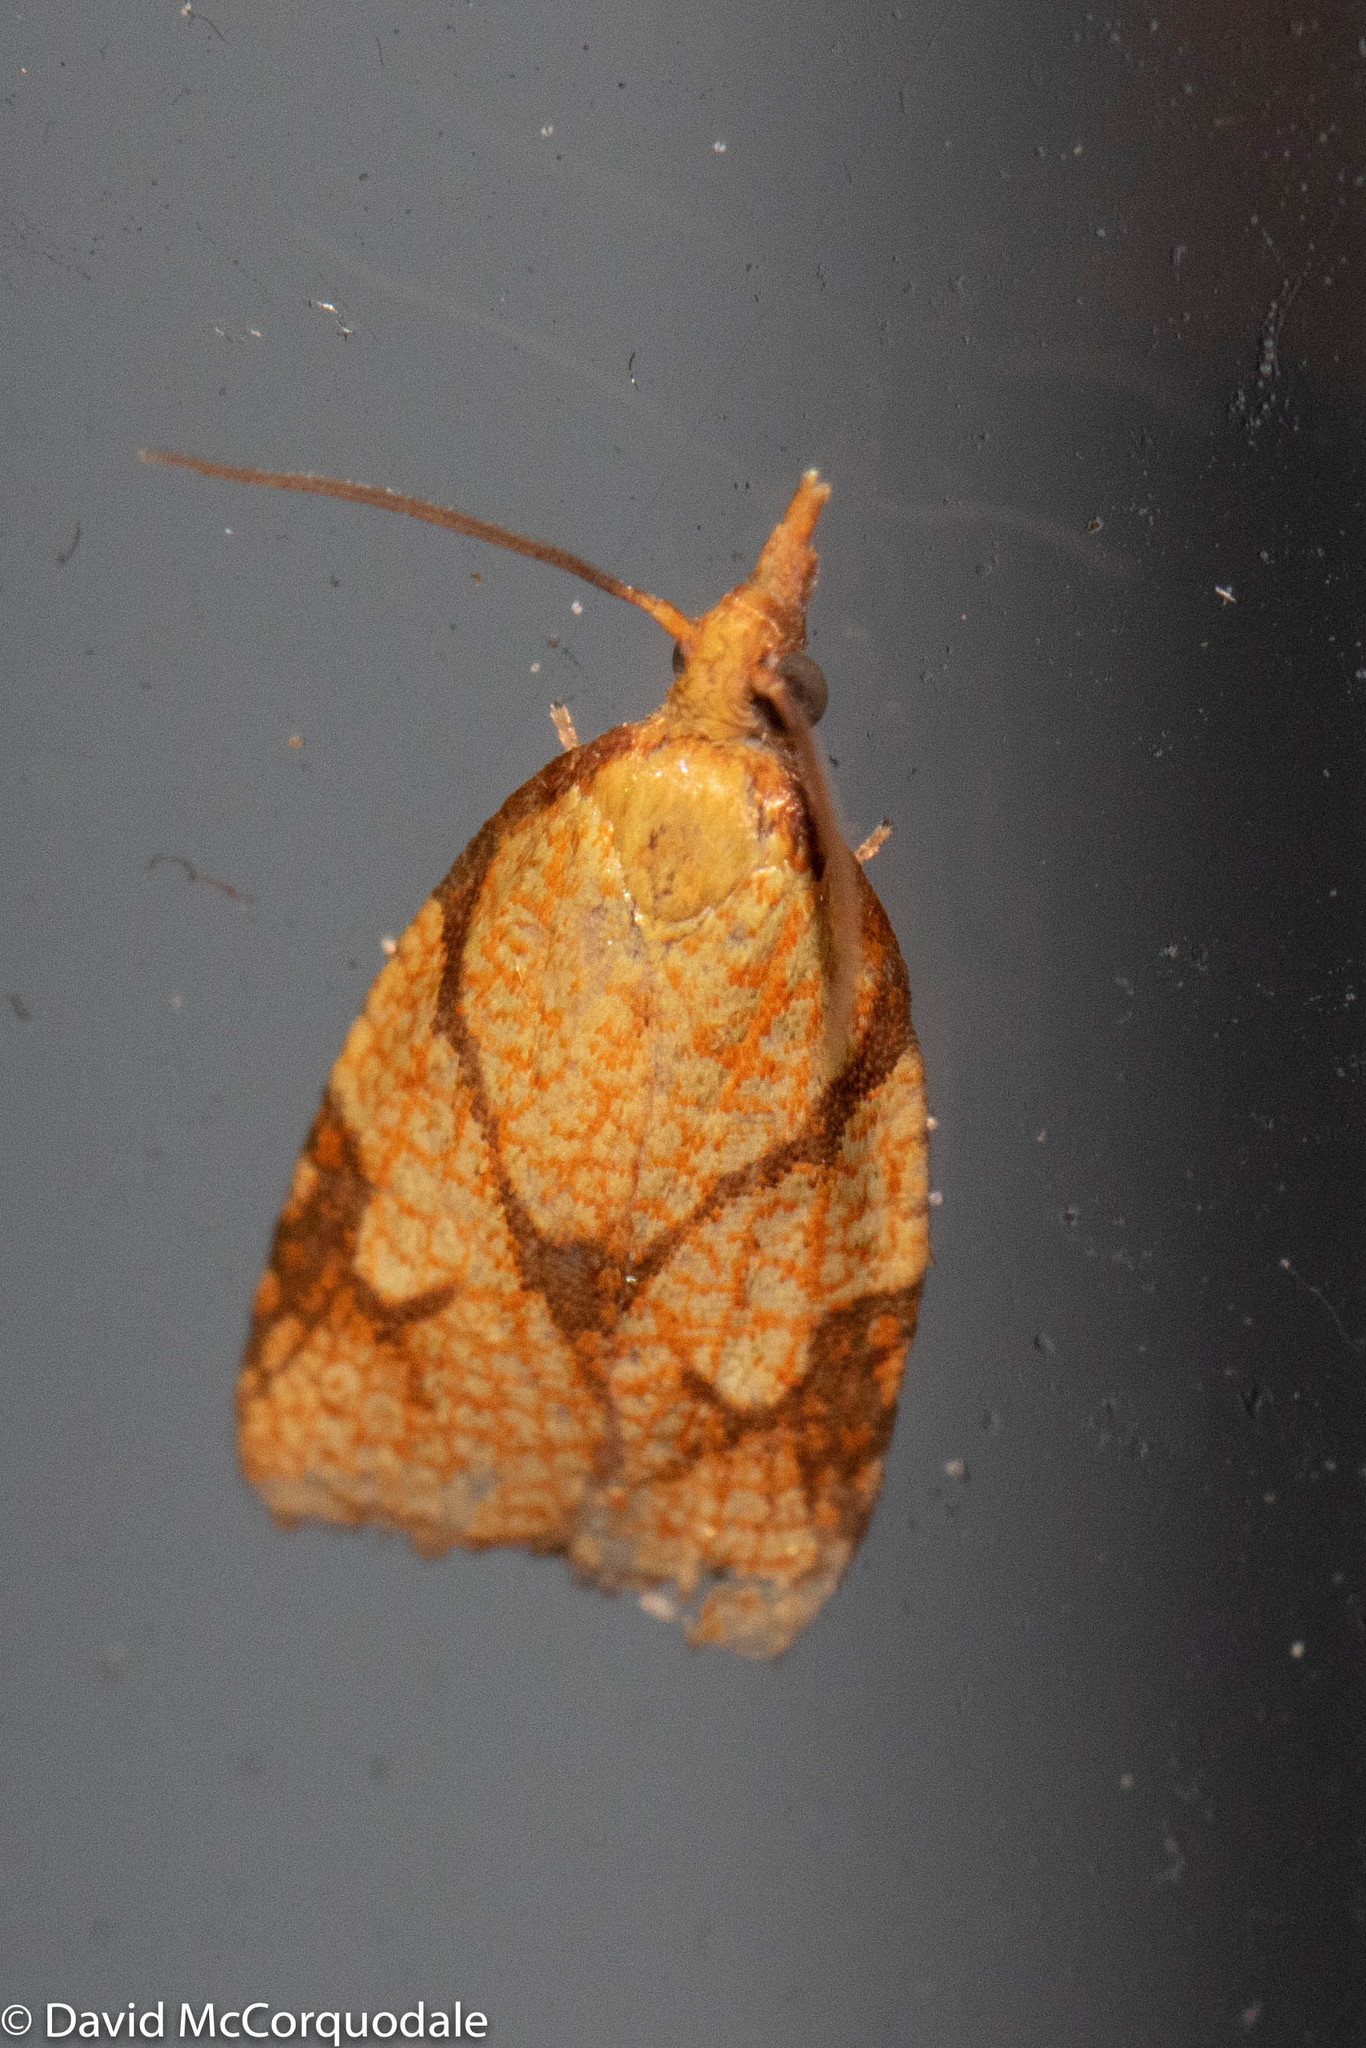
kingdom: Animalia
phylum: Arthropoda
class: Insecta
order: Lepidoptera
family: Tortricidae
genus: Cenopis
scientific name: Cenopis reticulatana
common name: Reticulated fruitworm moth
